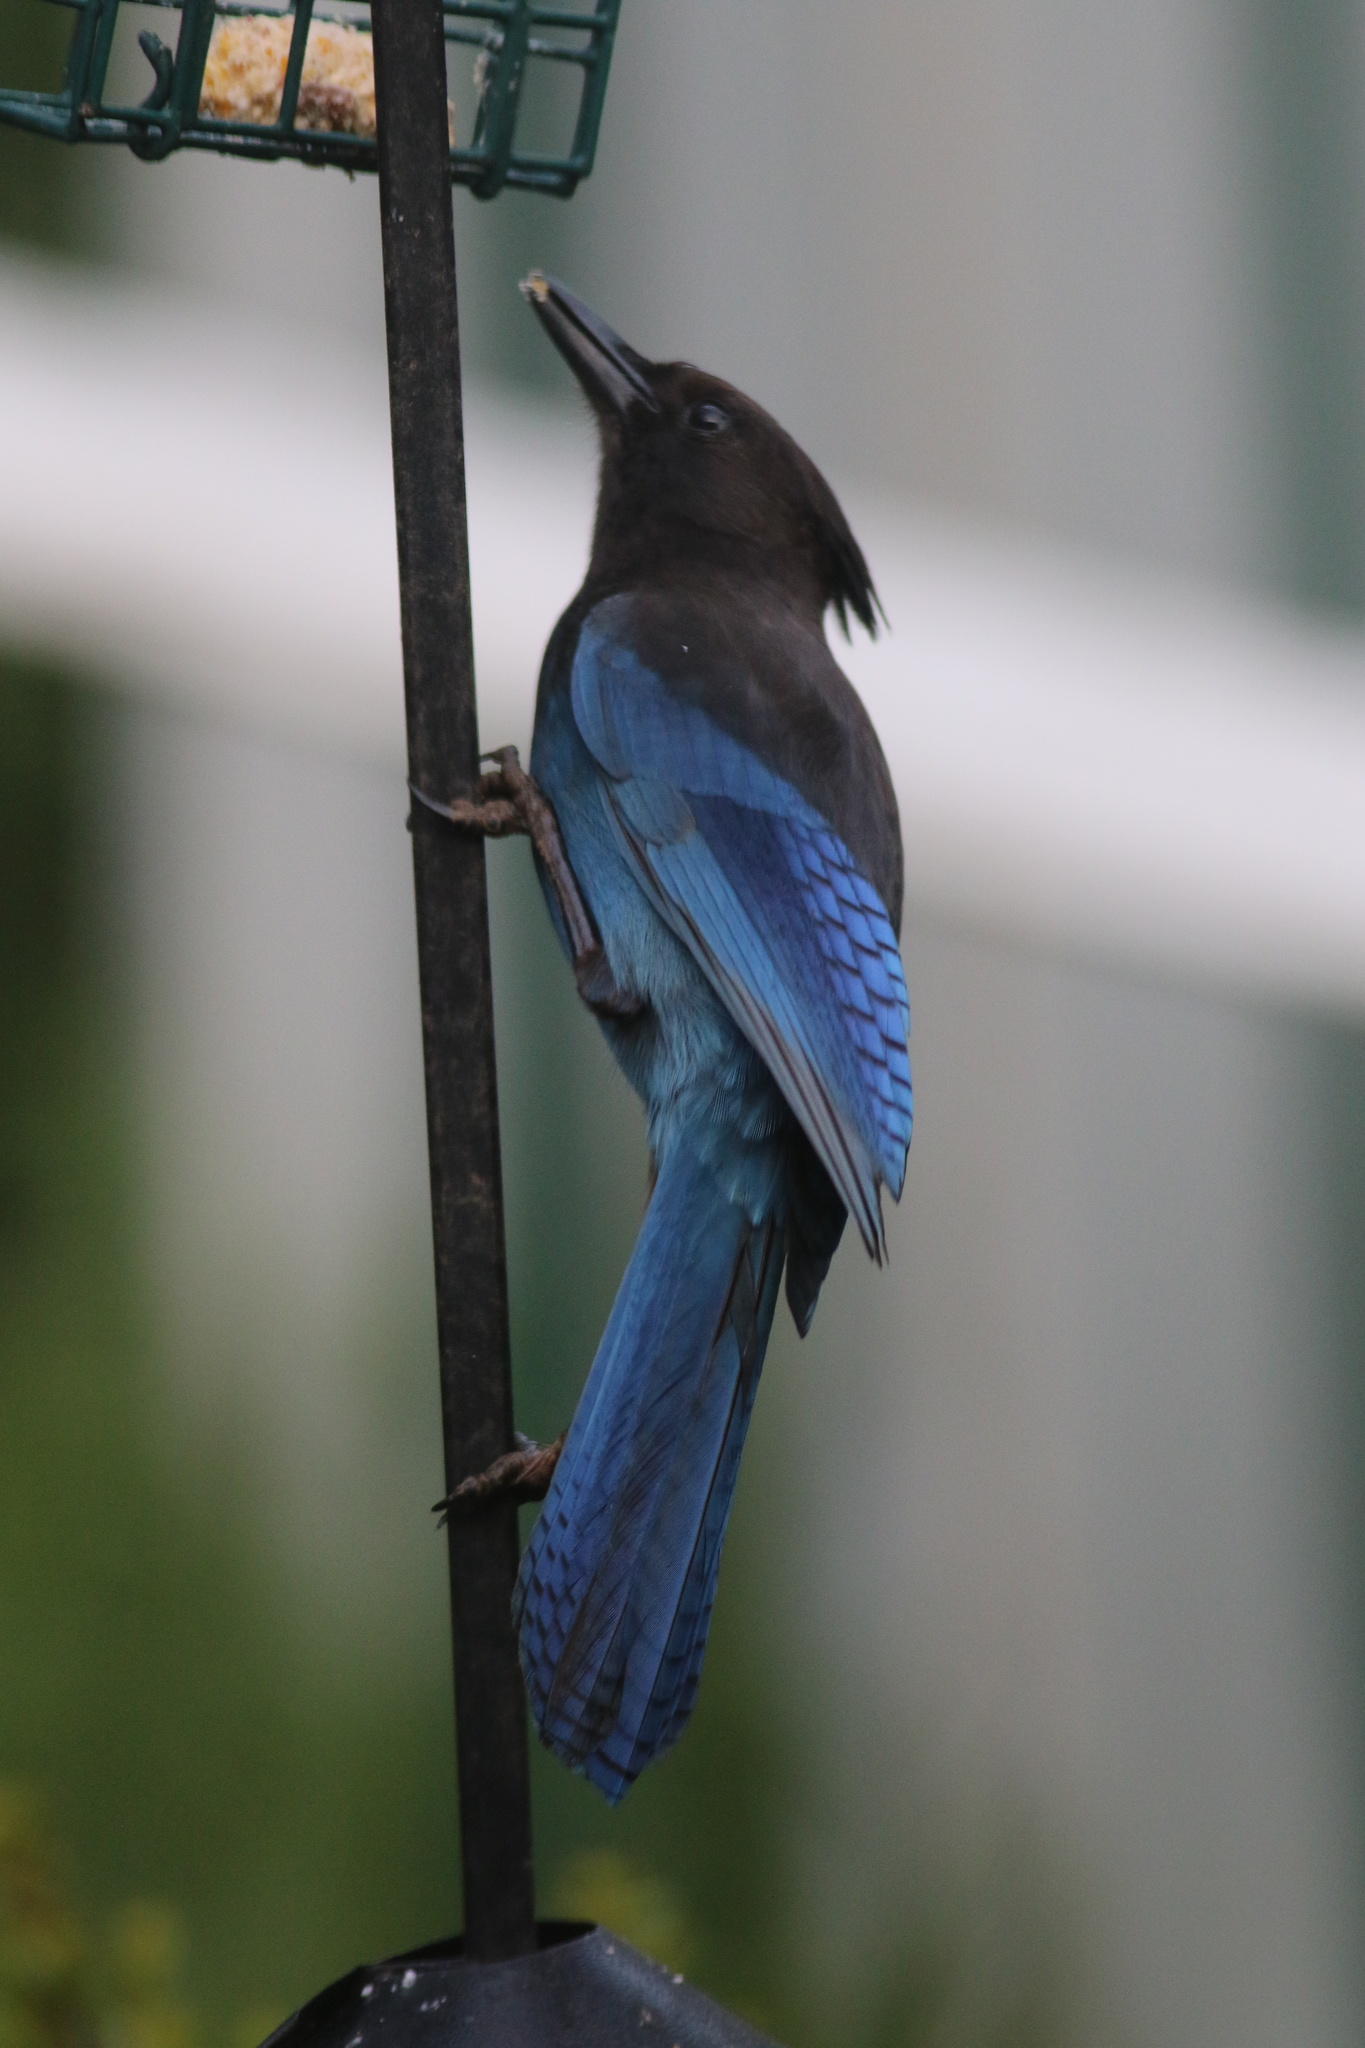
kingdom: Animalia
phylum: Chordata
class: Aves
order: Passeriformes
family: Corvidae
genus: Cyanocitta
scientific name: Cyanocitta stelleri
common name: Steller's jay
